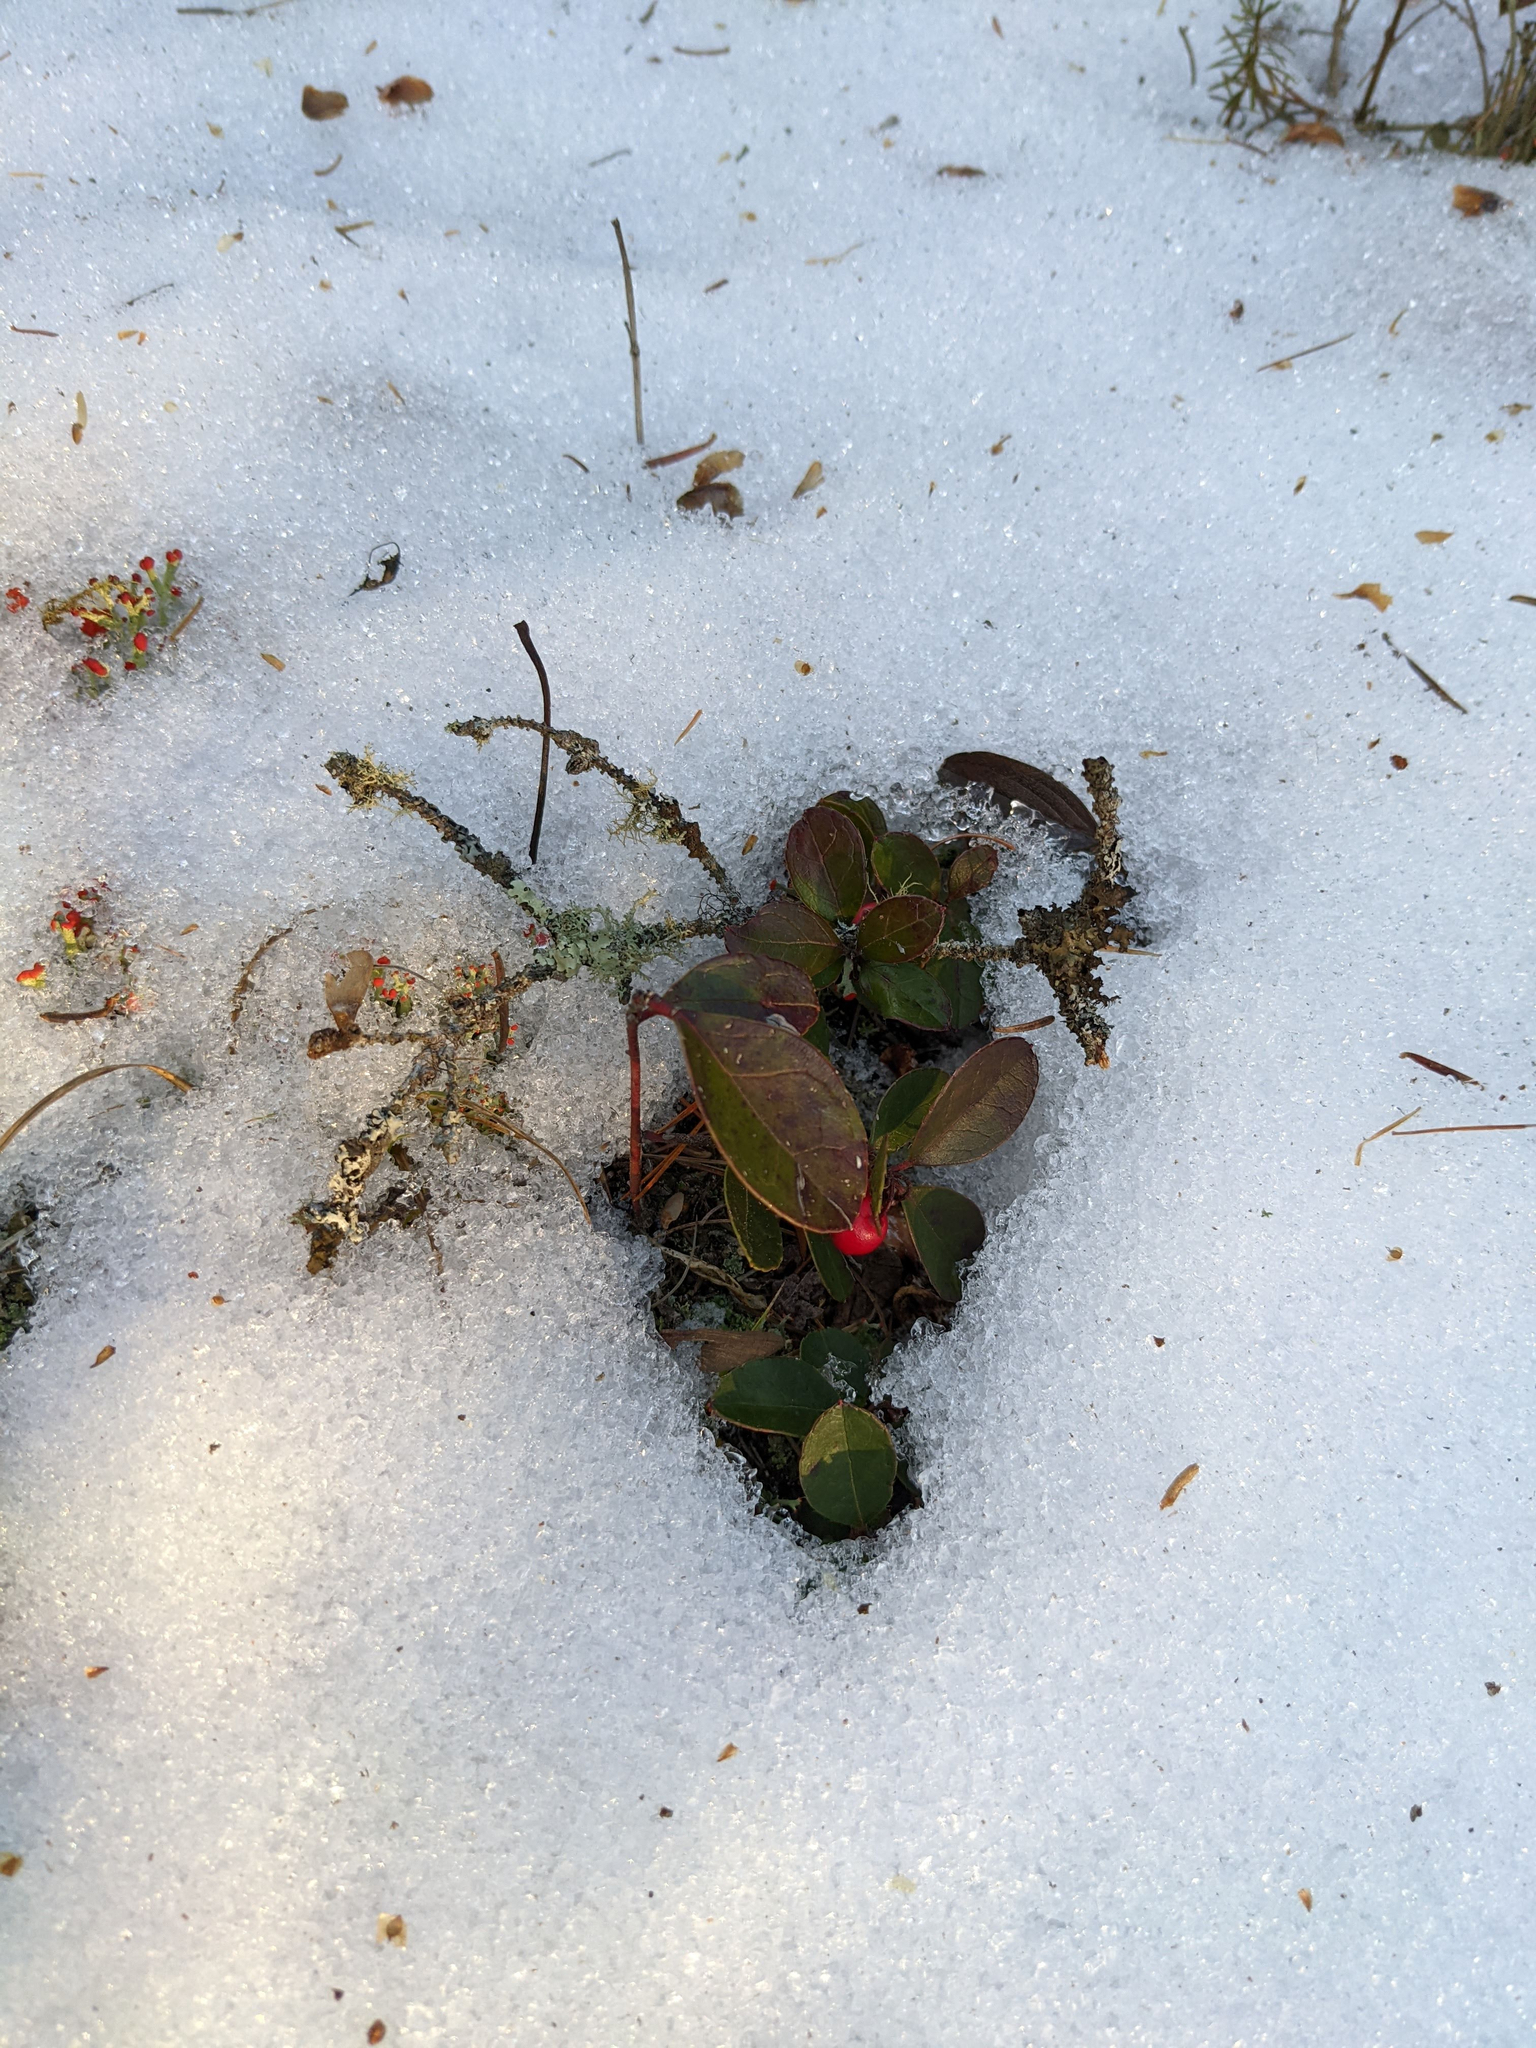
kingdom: Plantae
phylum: Tracheophyta
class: Magnoliopsida
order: Ericales
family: Ericaceae
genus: Gaultheria
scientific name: Gaultheria procumbens
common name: Checkerberry
